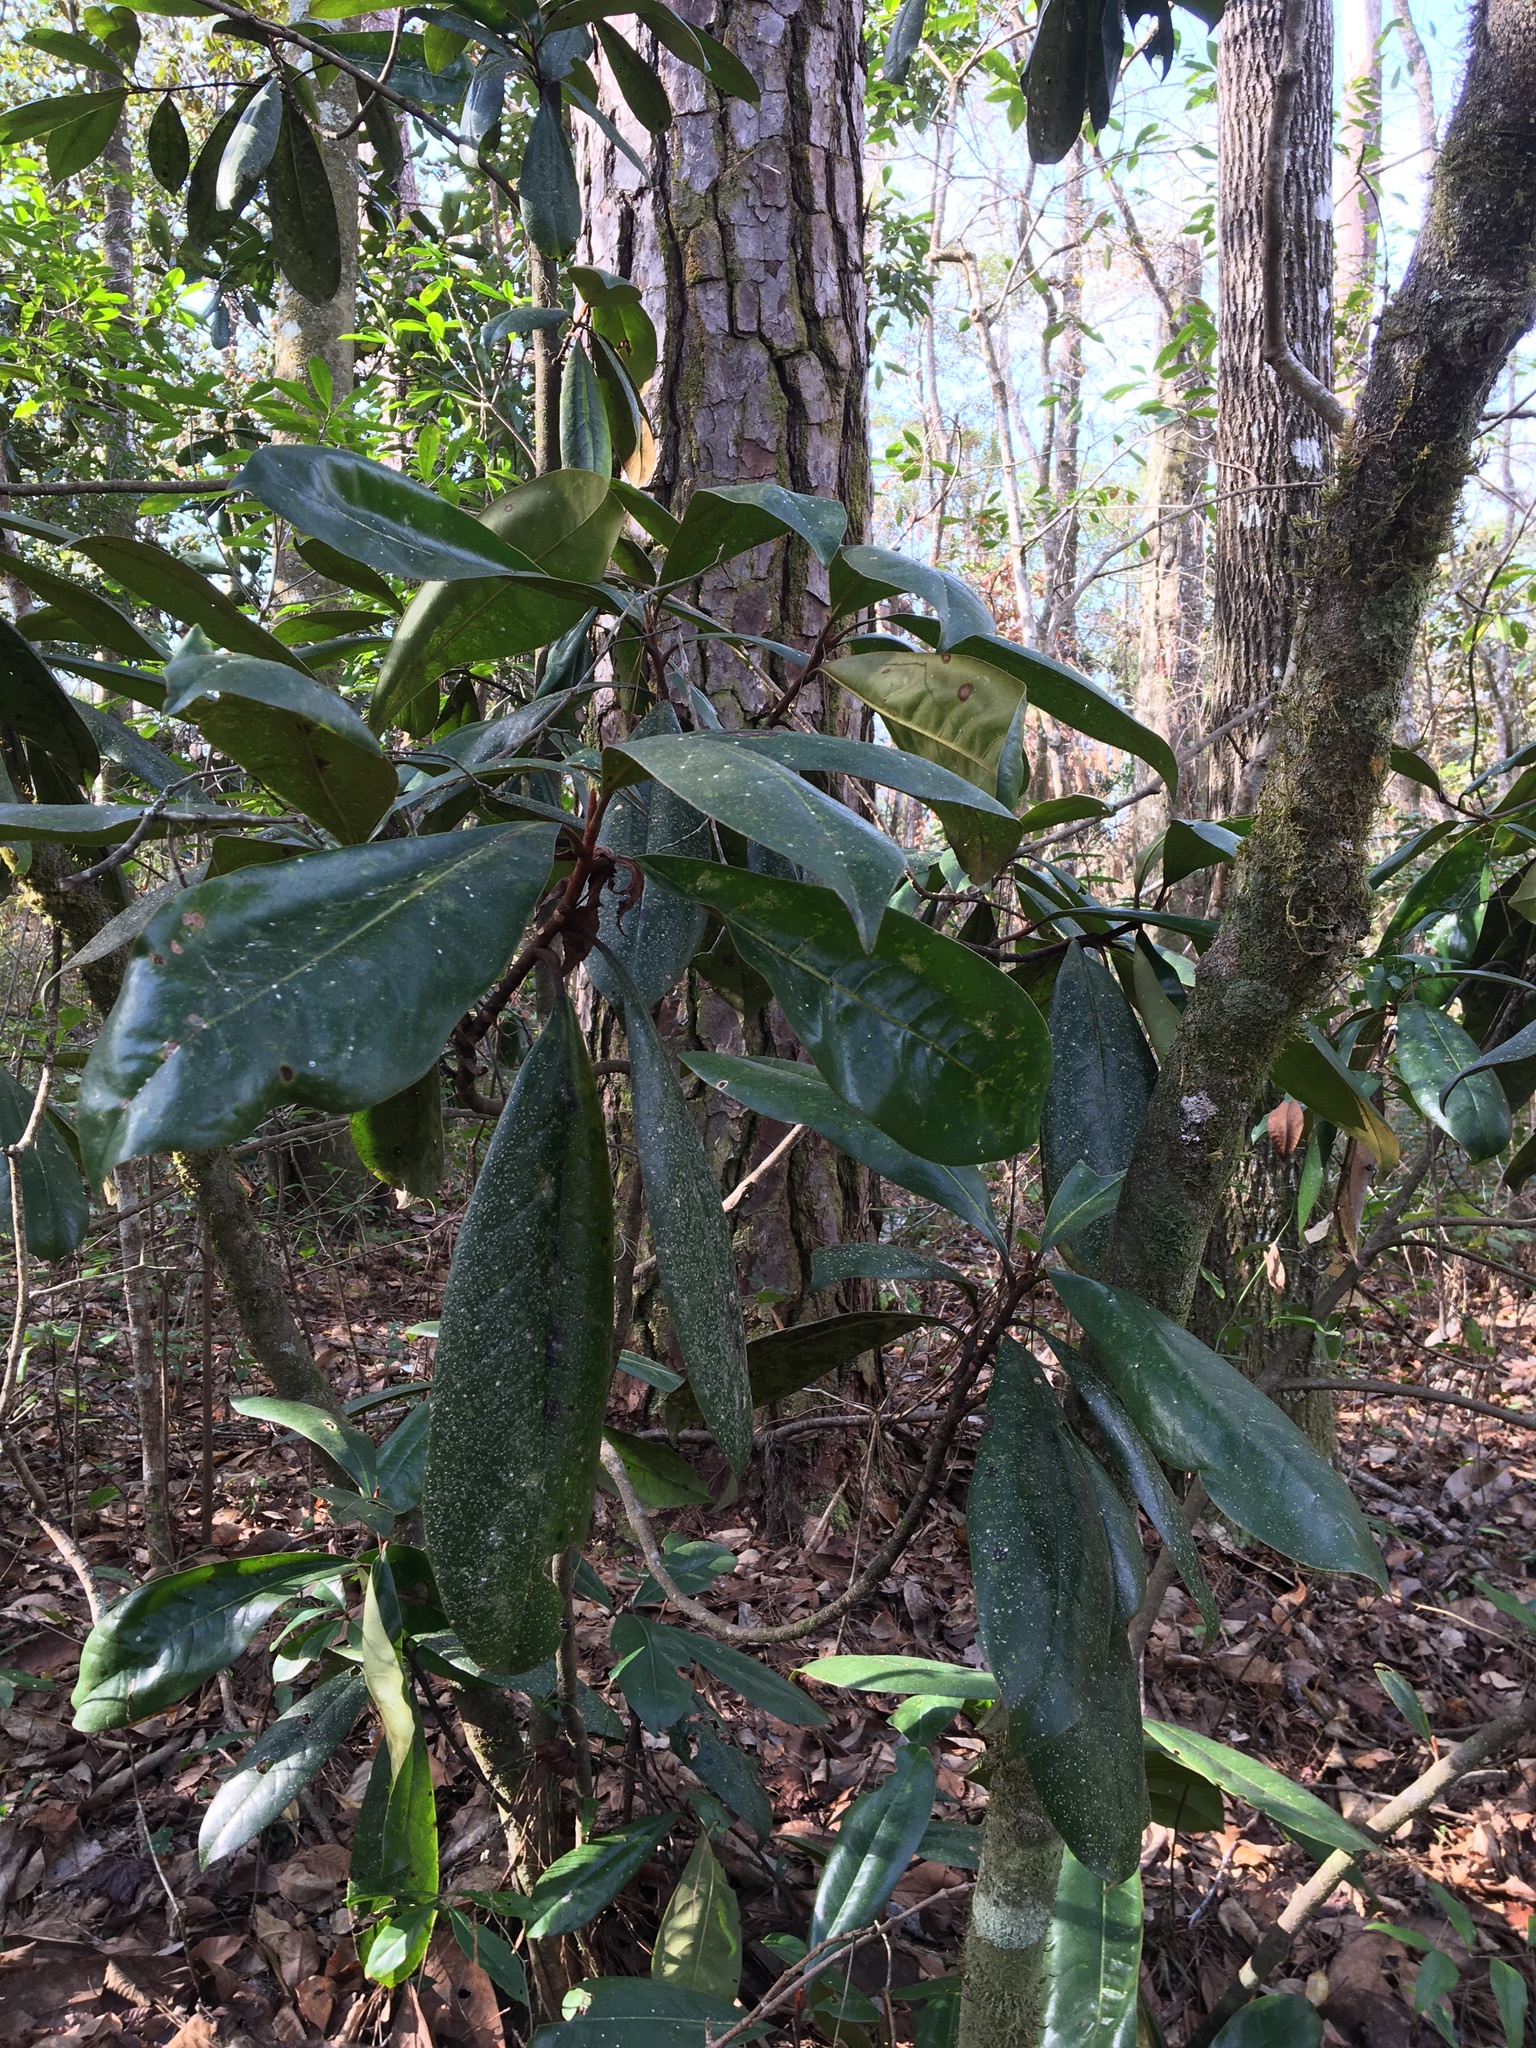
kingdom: Plantae
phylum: Tracheophyta
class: Magnoliopsida
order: Magnoliales
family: Magnoliaceae
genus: Magnolia
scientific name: Magnolia grandiflora
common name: Southern magnolia
